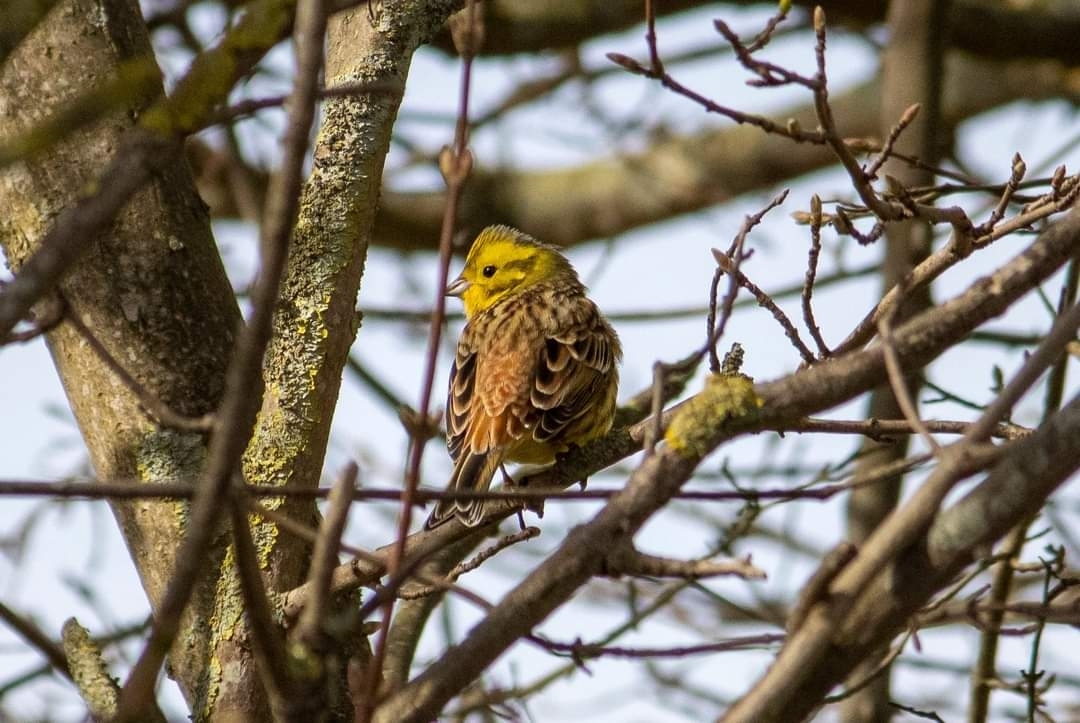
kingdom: Animalia
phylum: Chordata
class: Aves
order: Passeriformes
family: Emberizidae
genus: Emberiza
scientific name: Emberiza citrinella
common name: Yellowhammer
